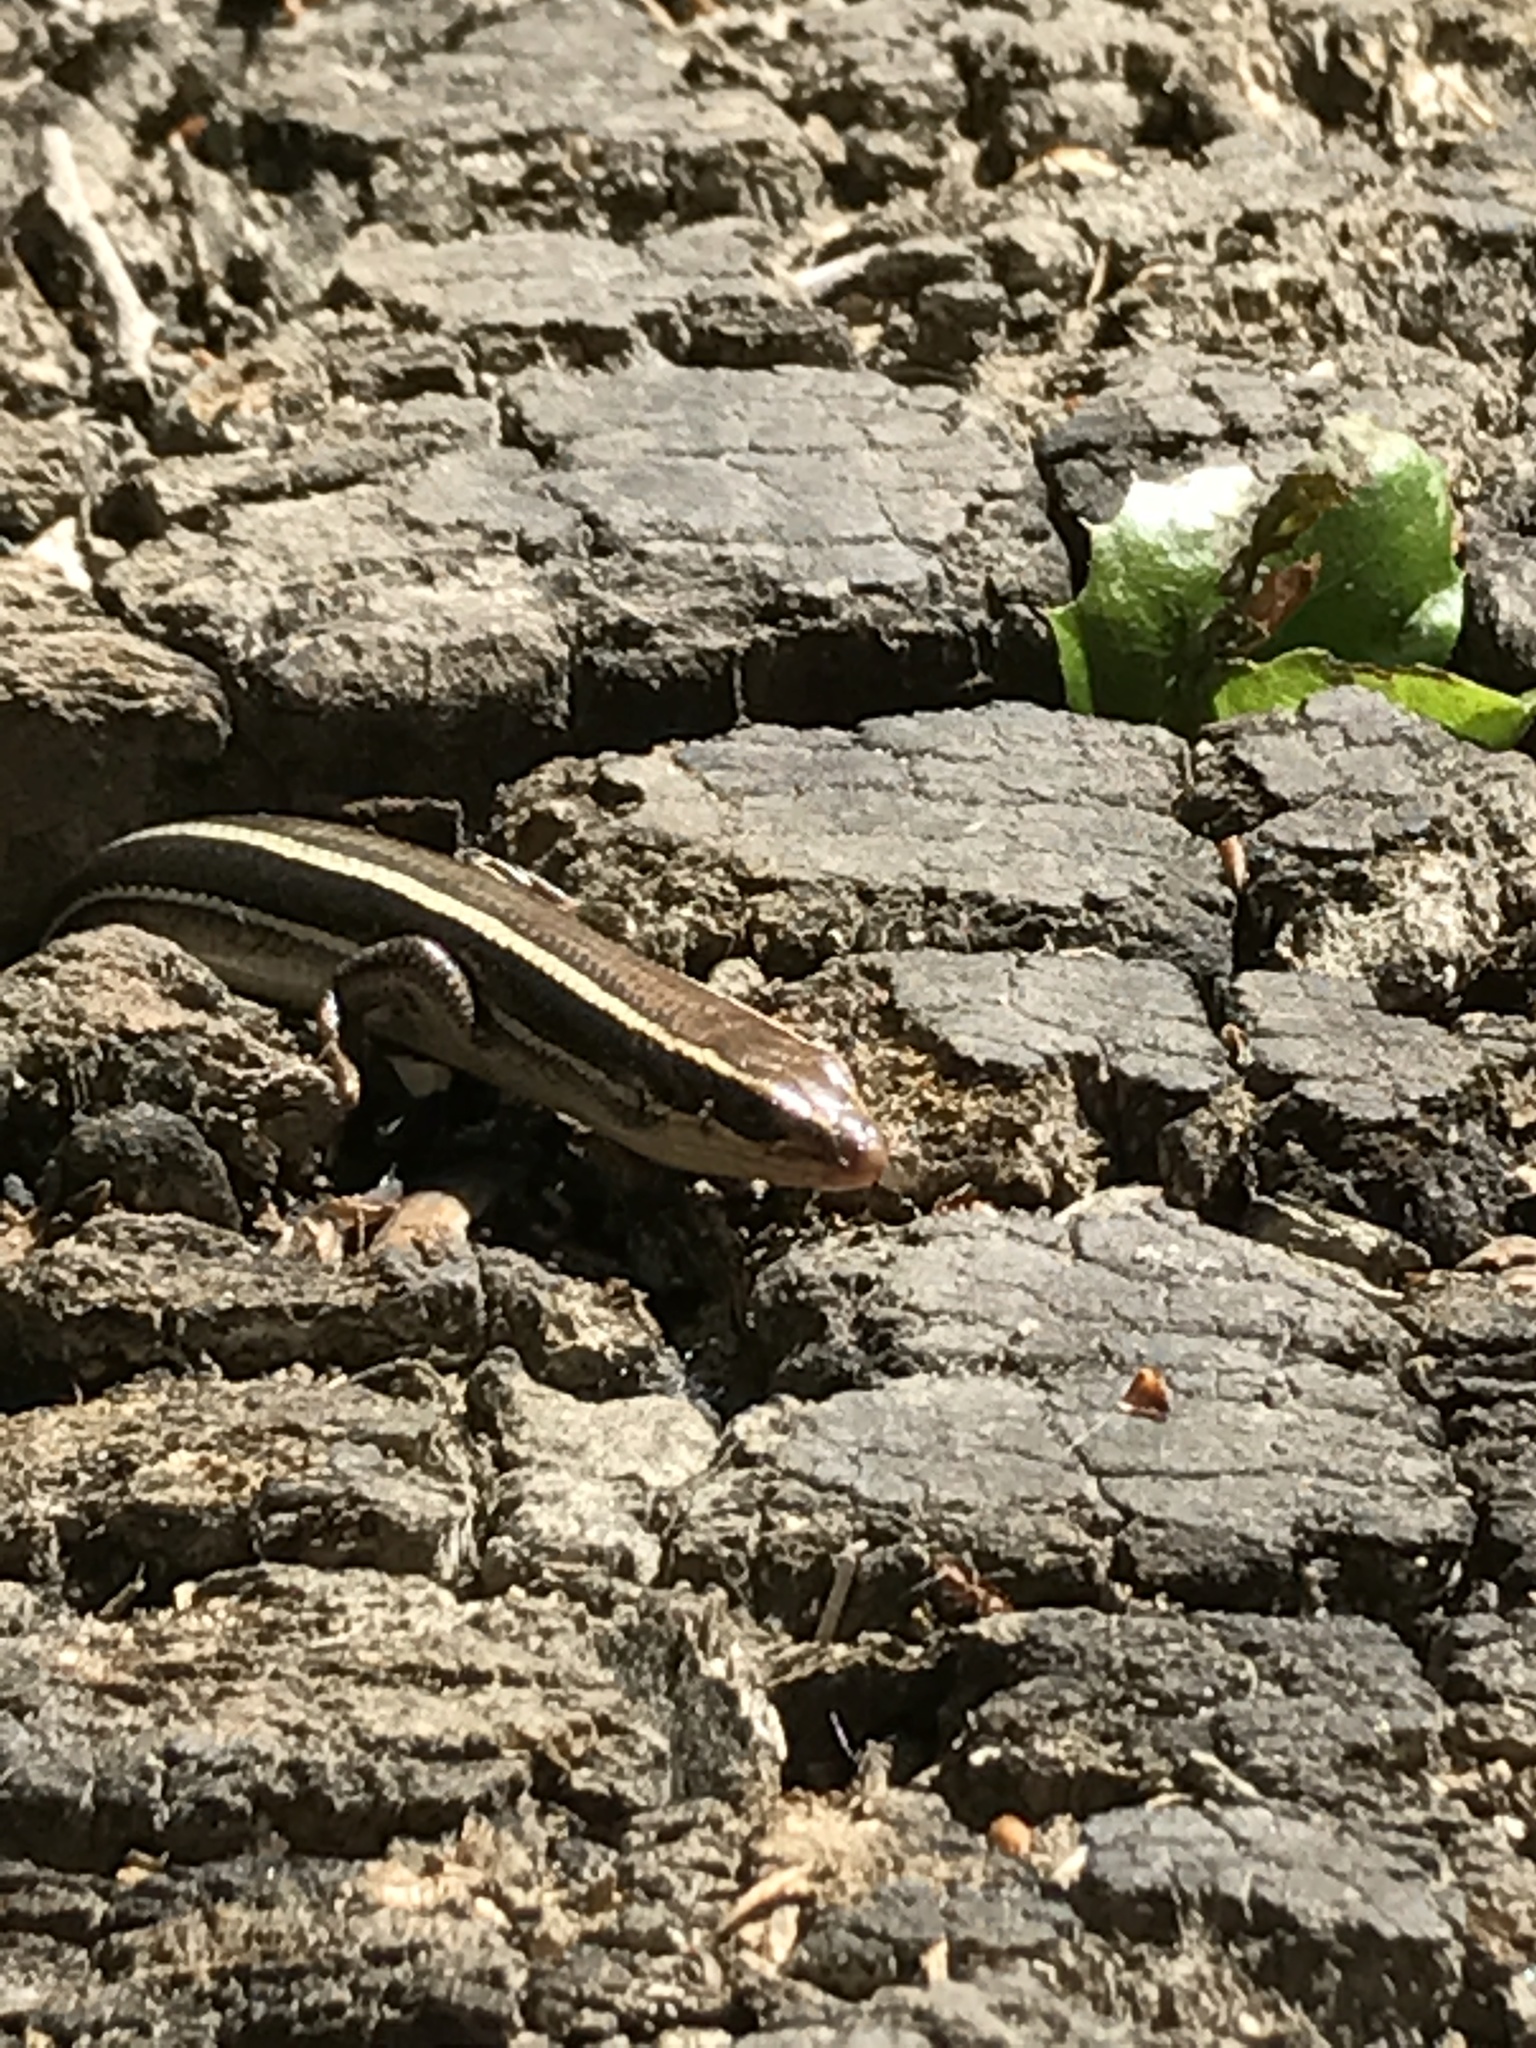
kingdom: Animalia
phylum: Chordata
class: Squamata
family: Scincidae
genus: Plestiodon
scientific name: Plestiodon skiltonianus
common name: Coronado island skink [interparietalis]
